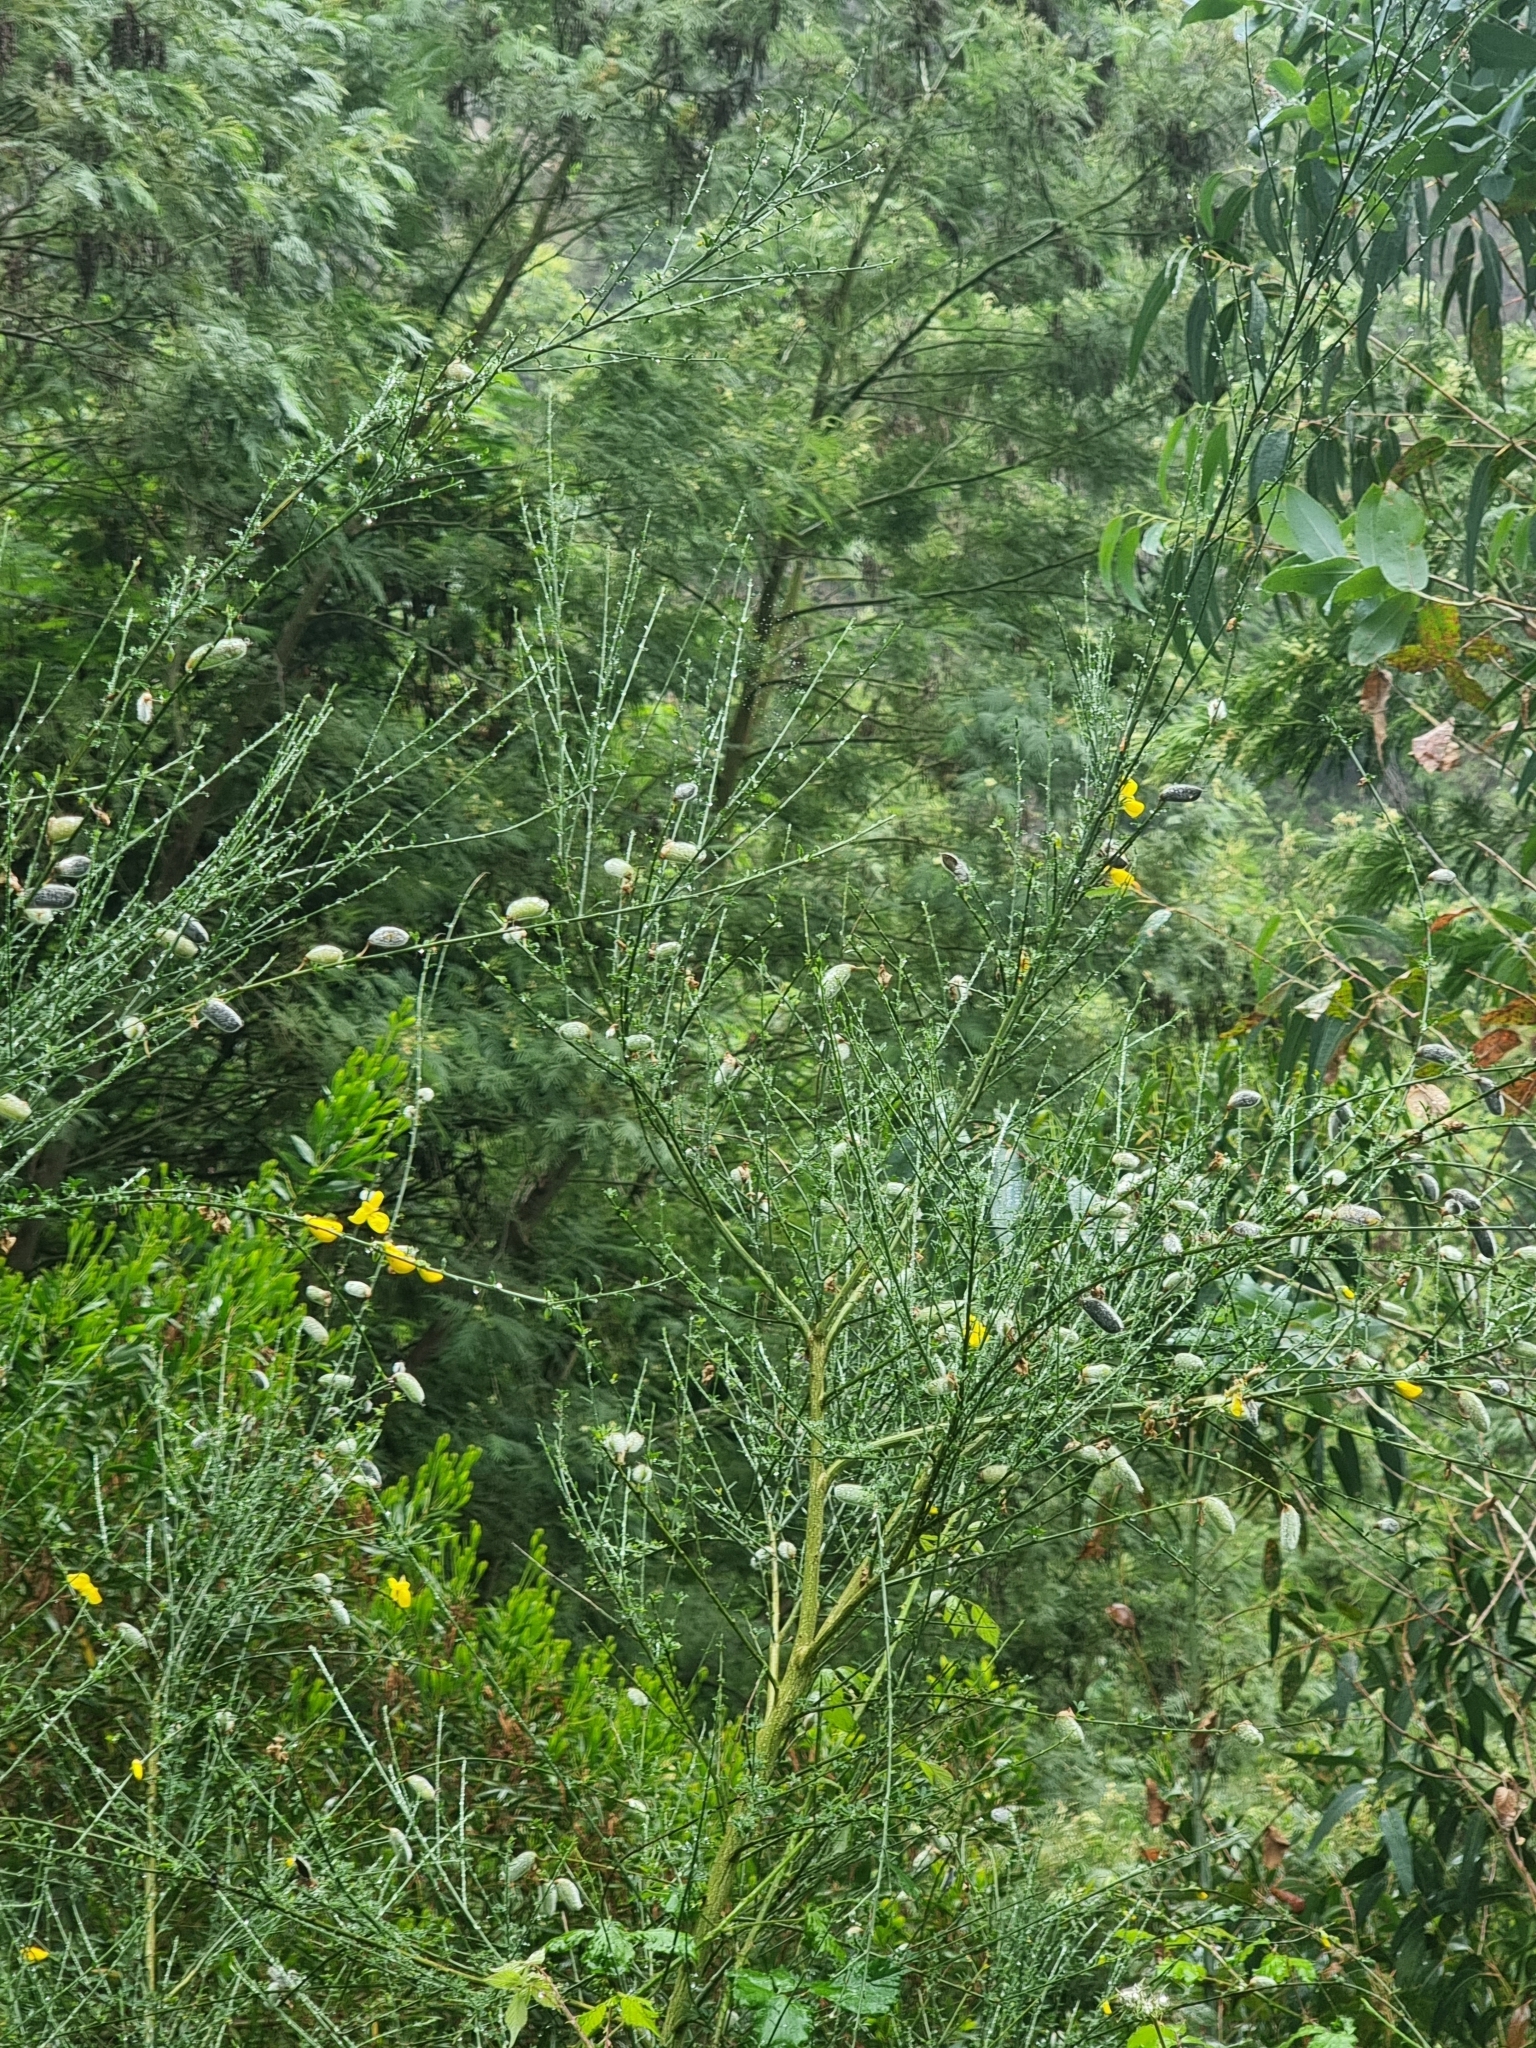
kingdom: Plantae
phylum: Tracheophyta
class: Magnoliopsida
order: Fabales
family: Fabaceae
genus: Cytisus
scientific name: Cytisus striatus
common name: Hairy-fruited broom
